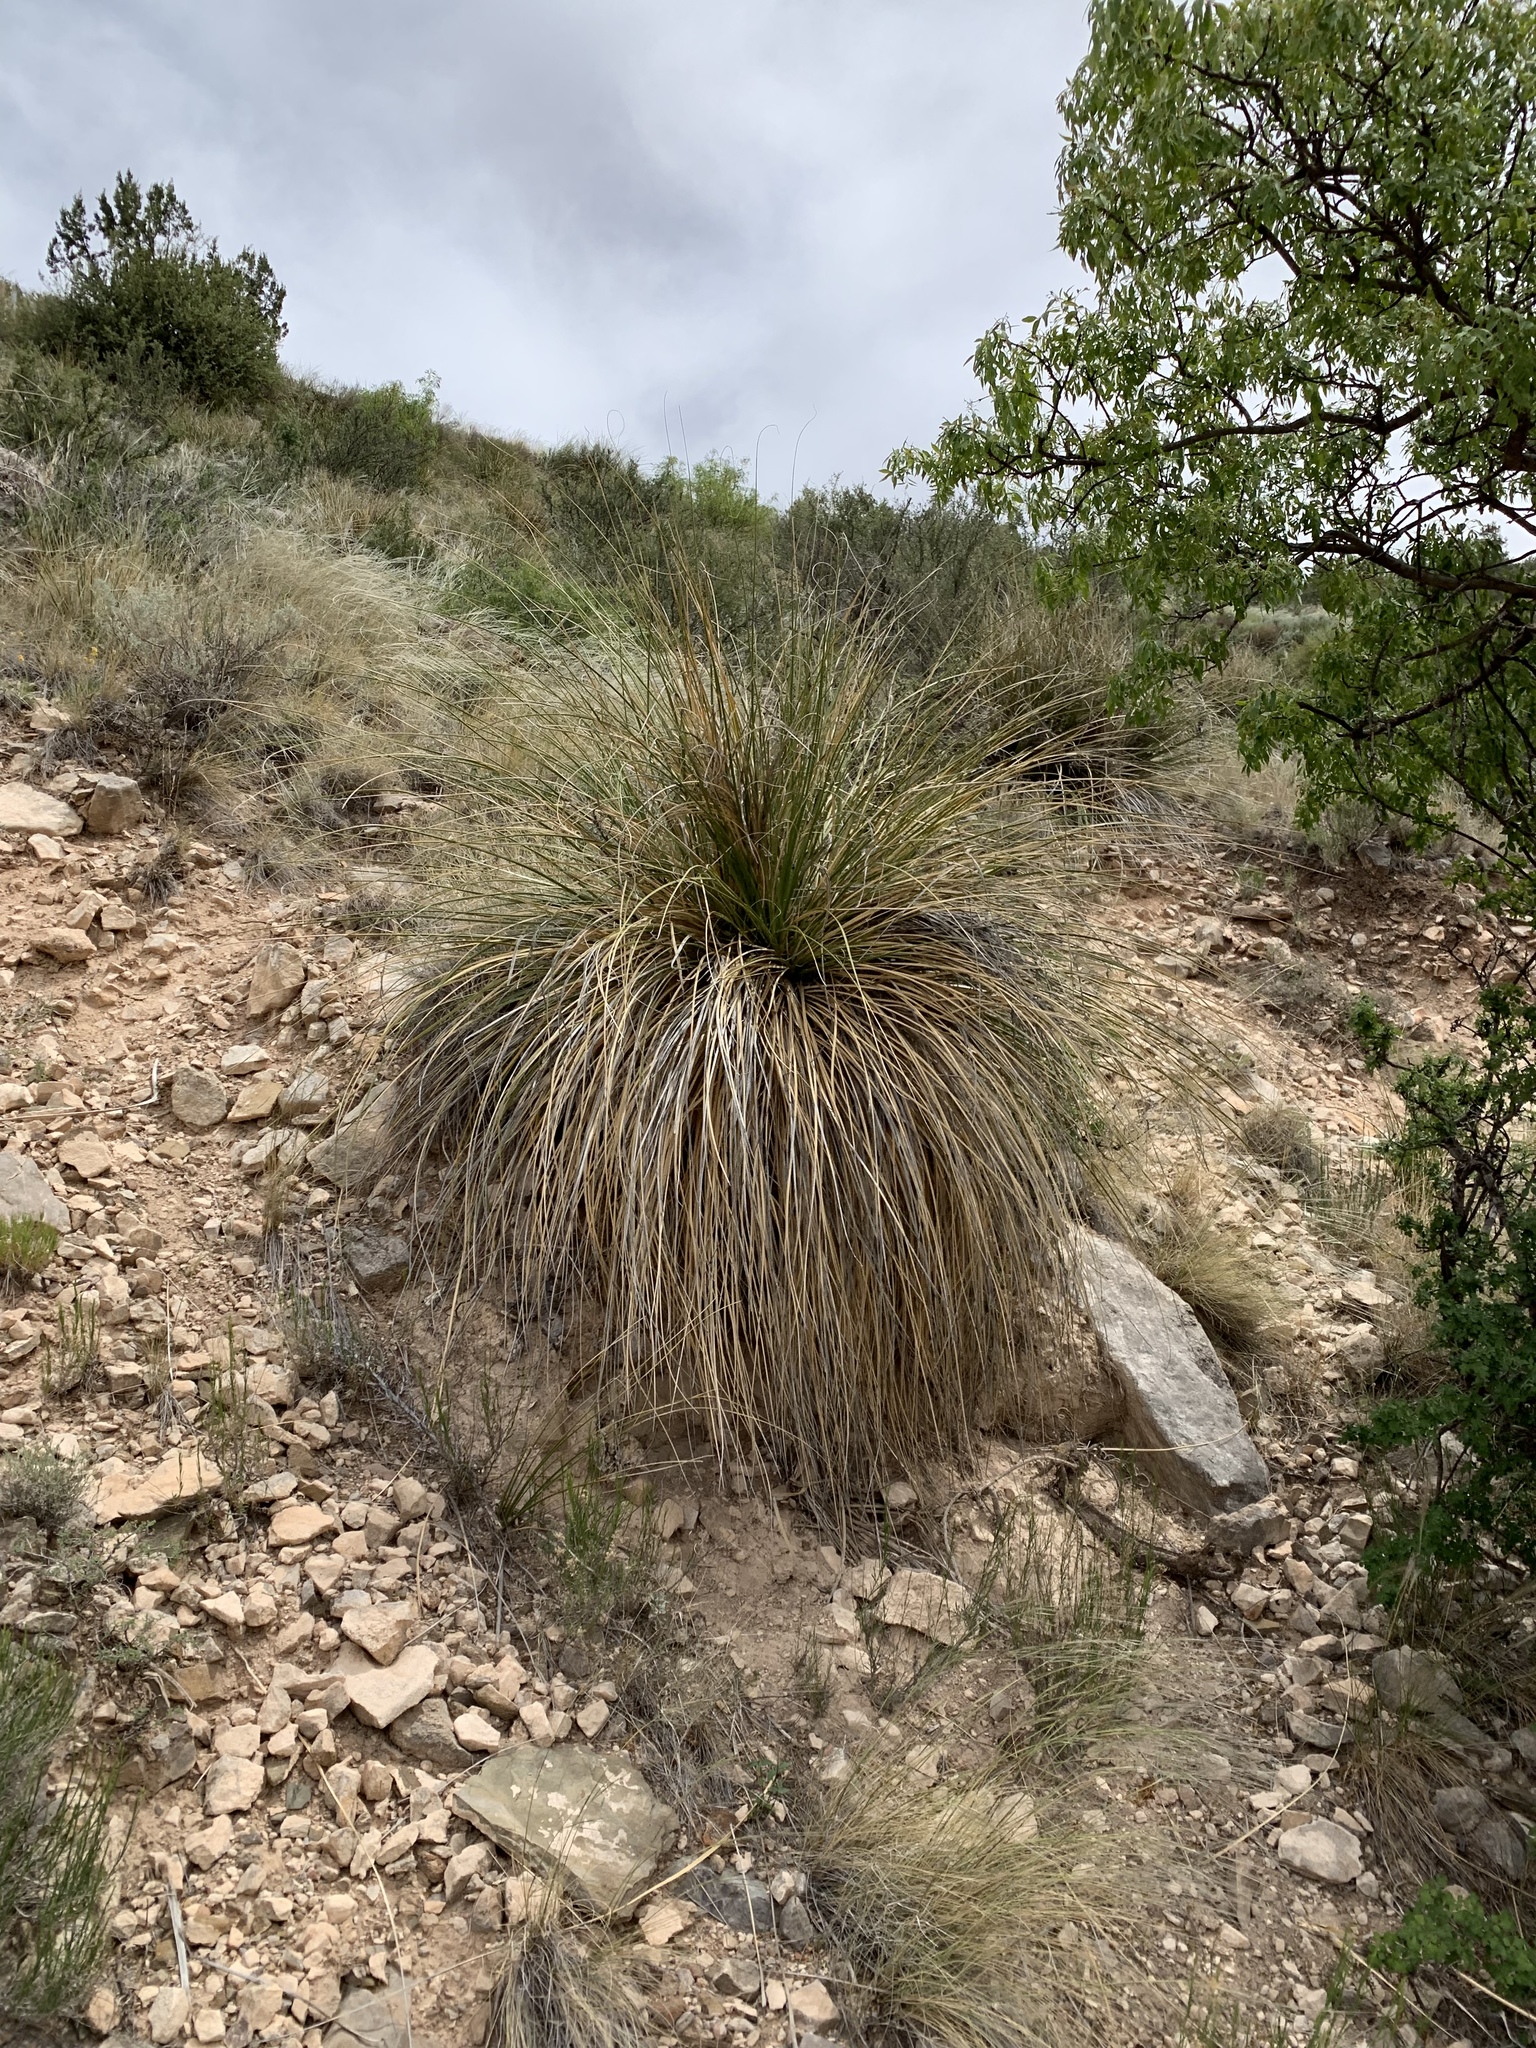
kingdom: Plantae
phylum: Tracheophyta
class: Liliopsida
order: Asparagales
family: Asparagaceae
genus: Nolina
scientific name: Nolina texana
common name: Texas sacahuiste
